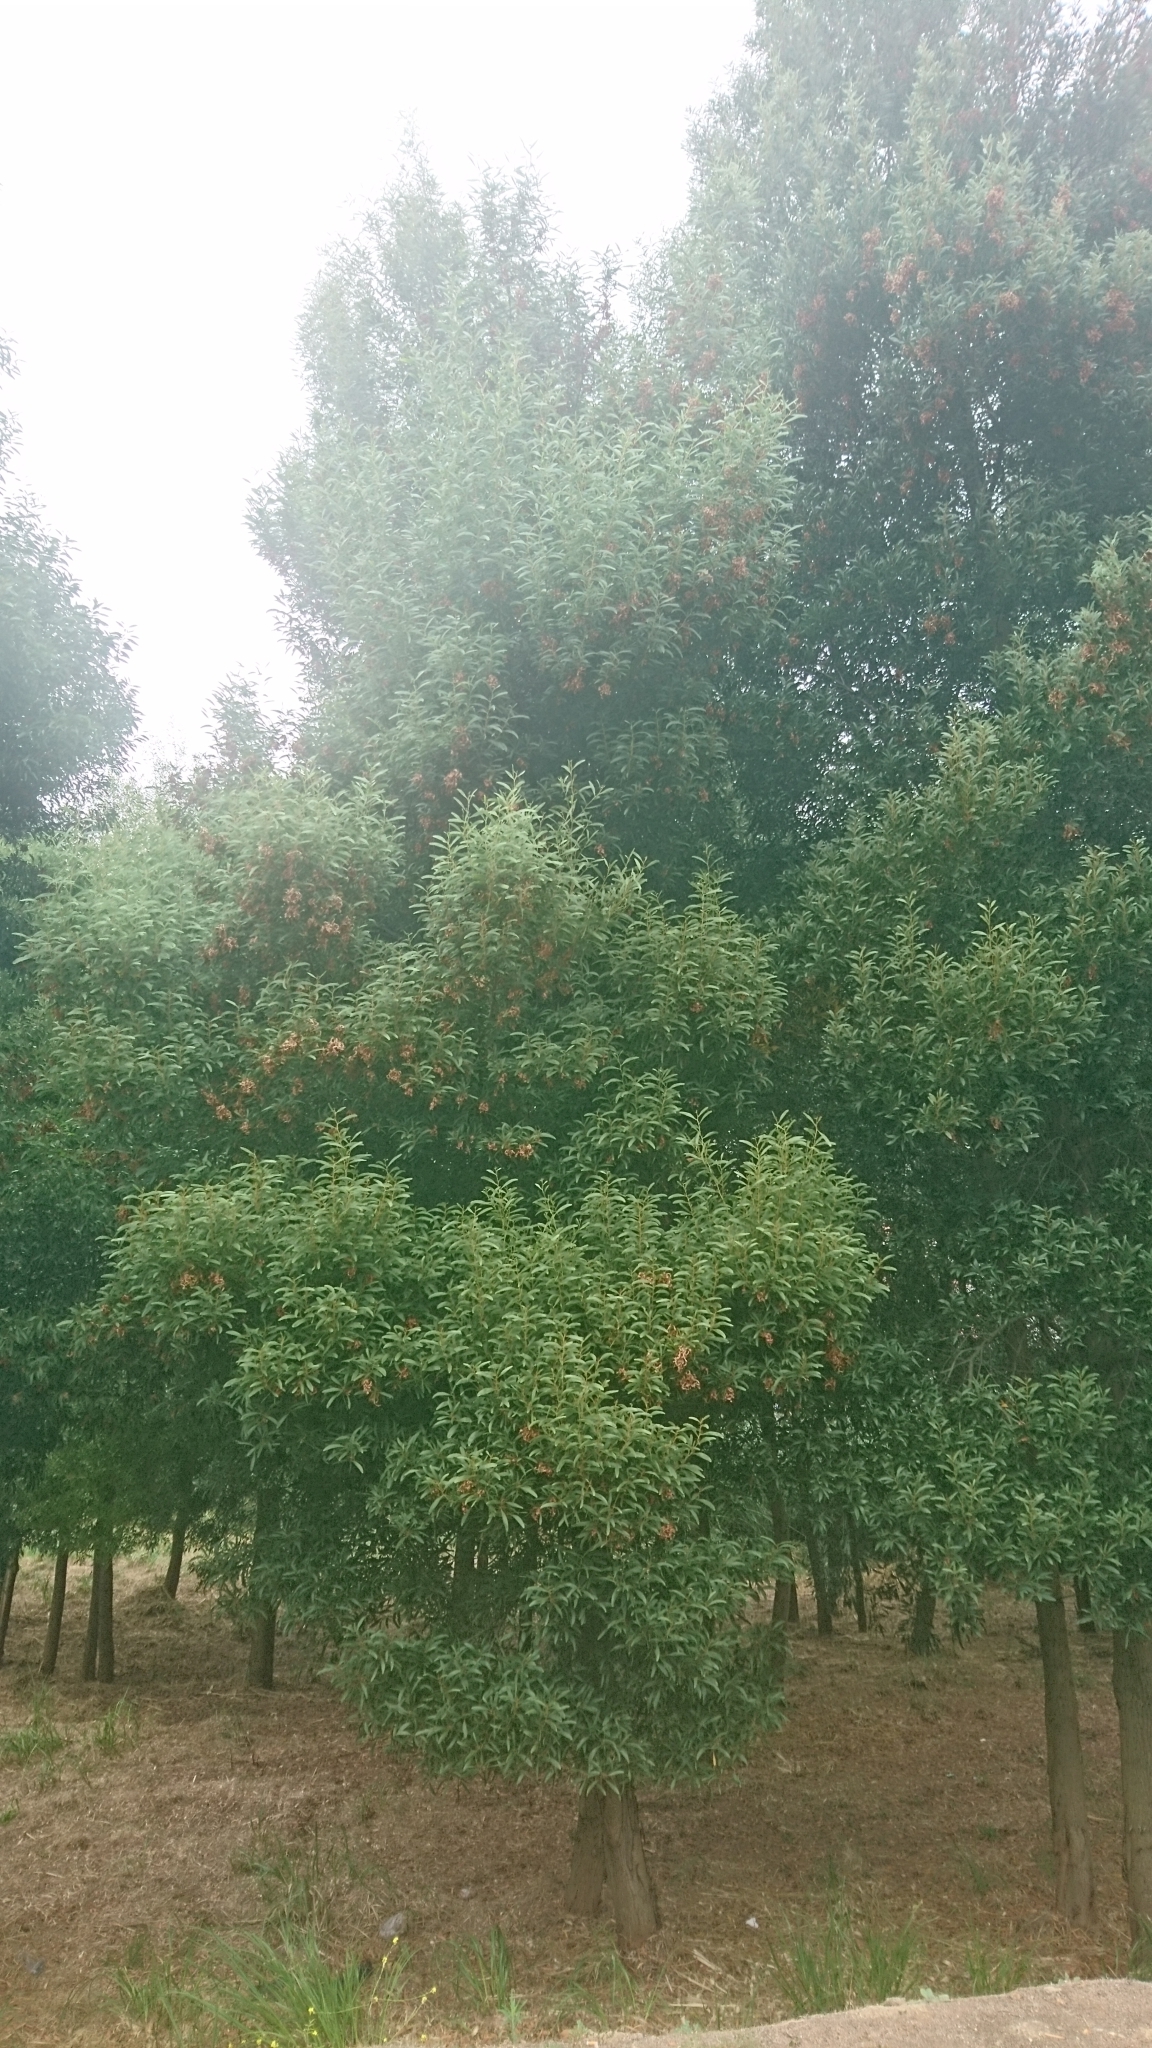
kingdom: Plantae
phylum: Tracheophyta
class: Magnoliopsida
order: Fabales
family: Fabaceae
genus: Acacia
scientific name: Acacia melanoxylon
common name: Blackwood
